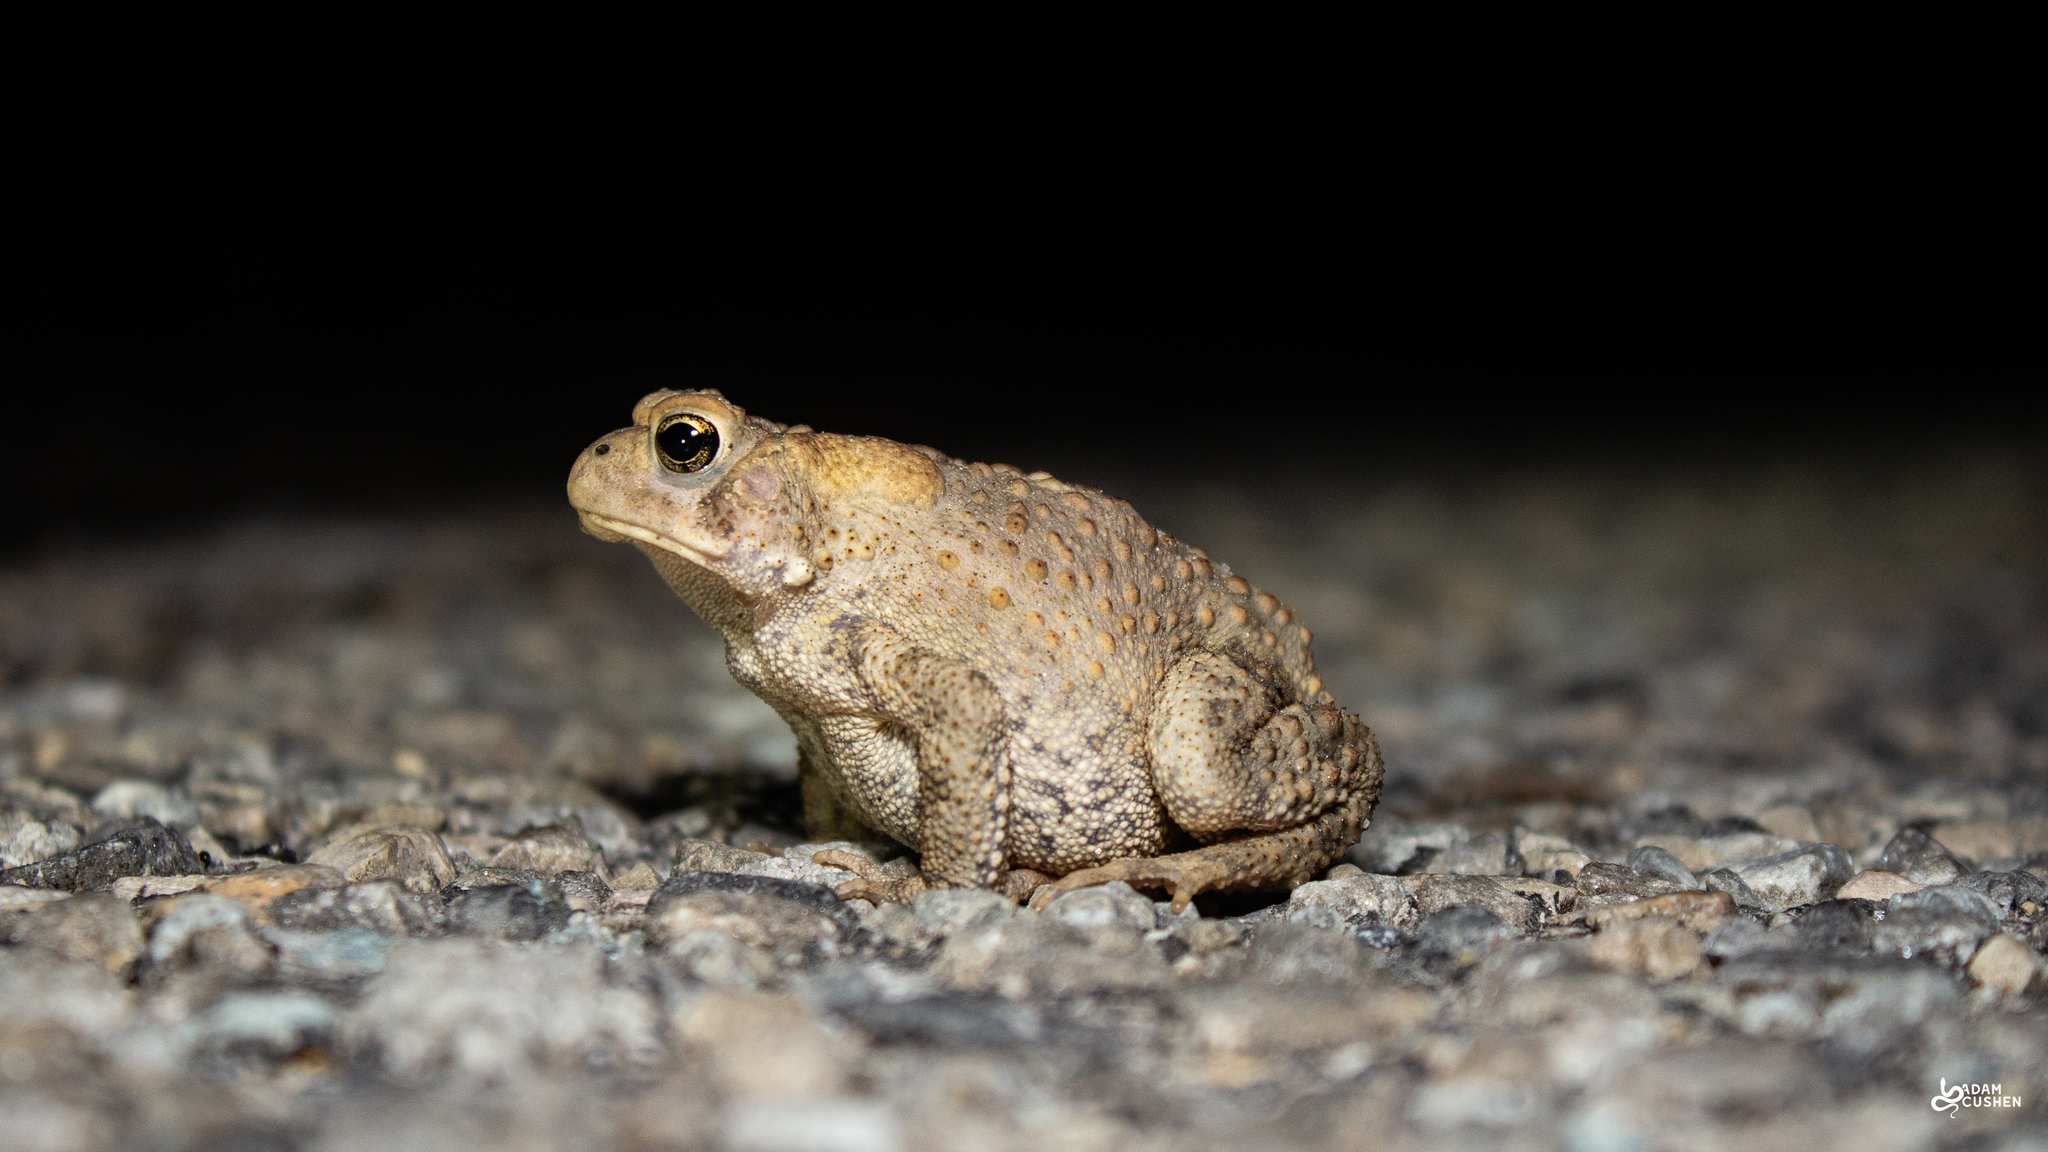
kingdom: Animalia
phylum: Chordata
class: Amphibia
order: Anura
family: Bufonidae
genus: Anaxyrus
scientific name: Anaxyrus americanus
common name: American toad
